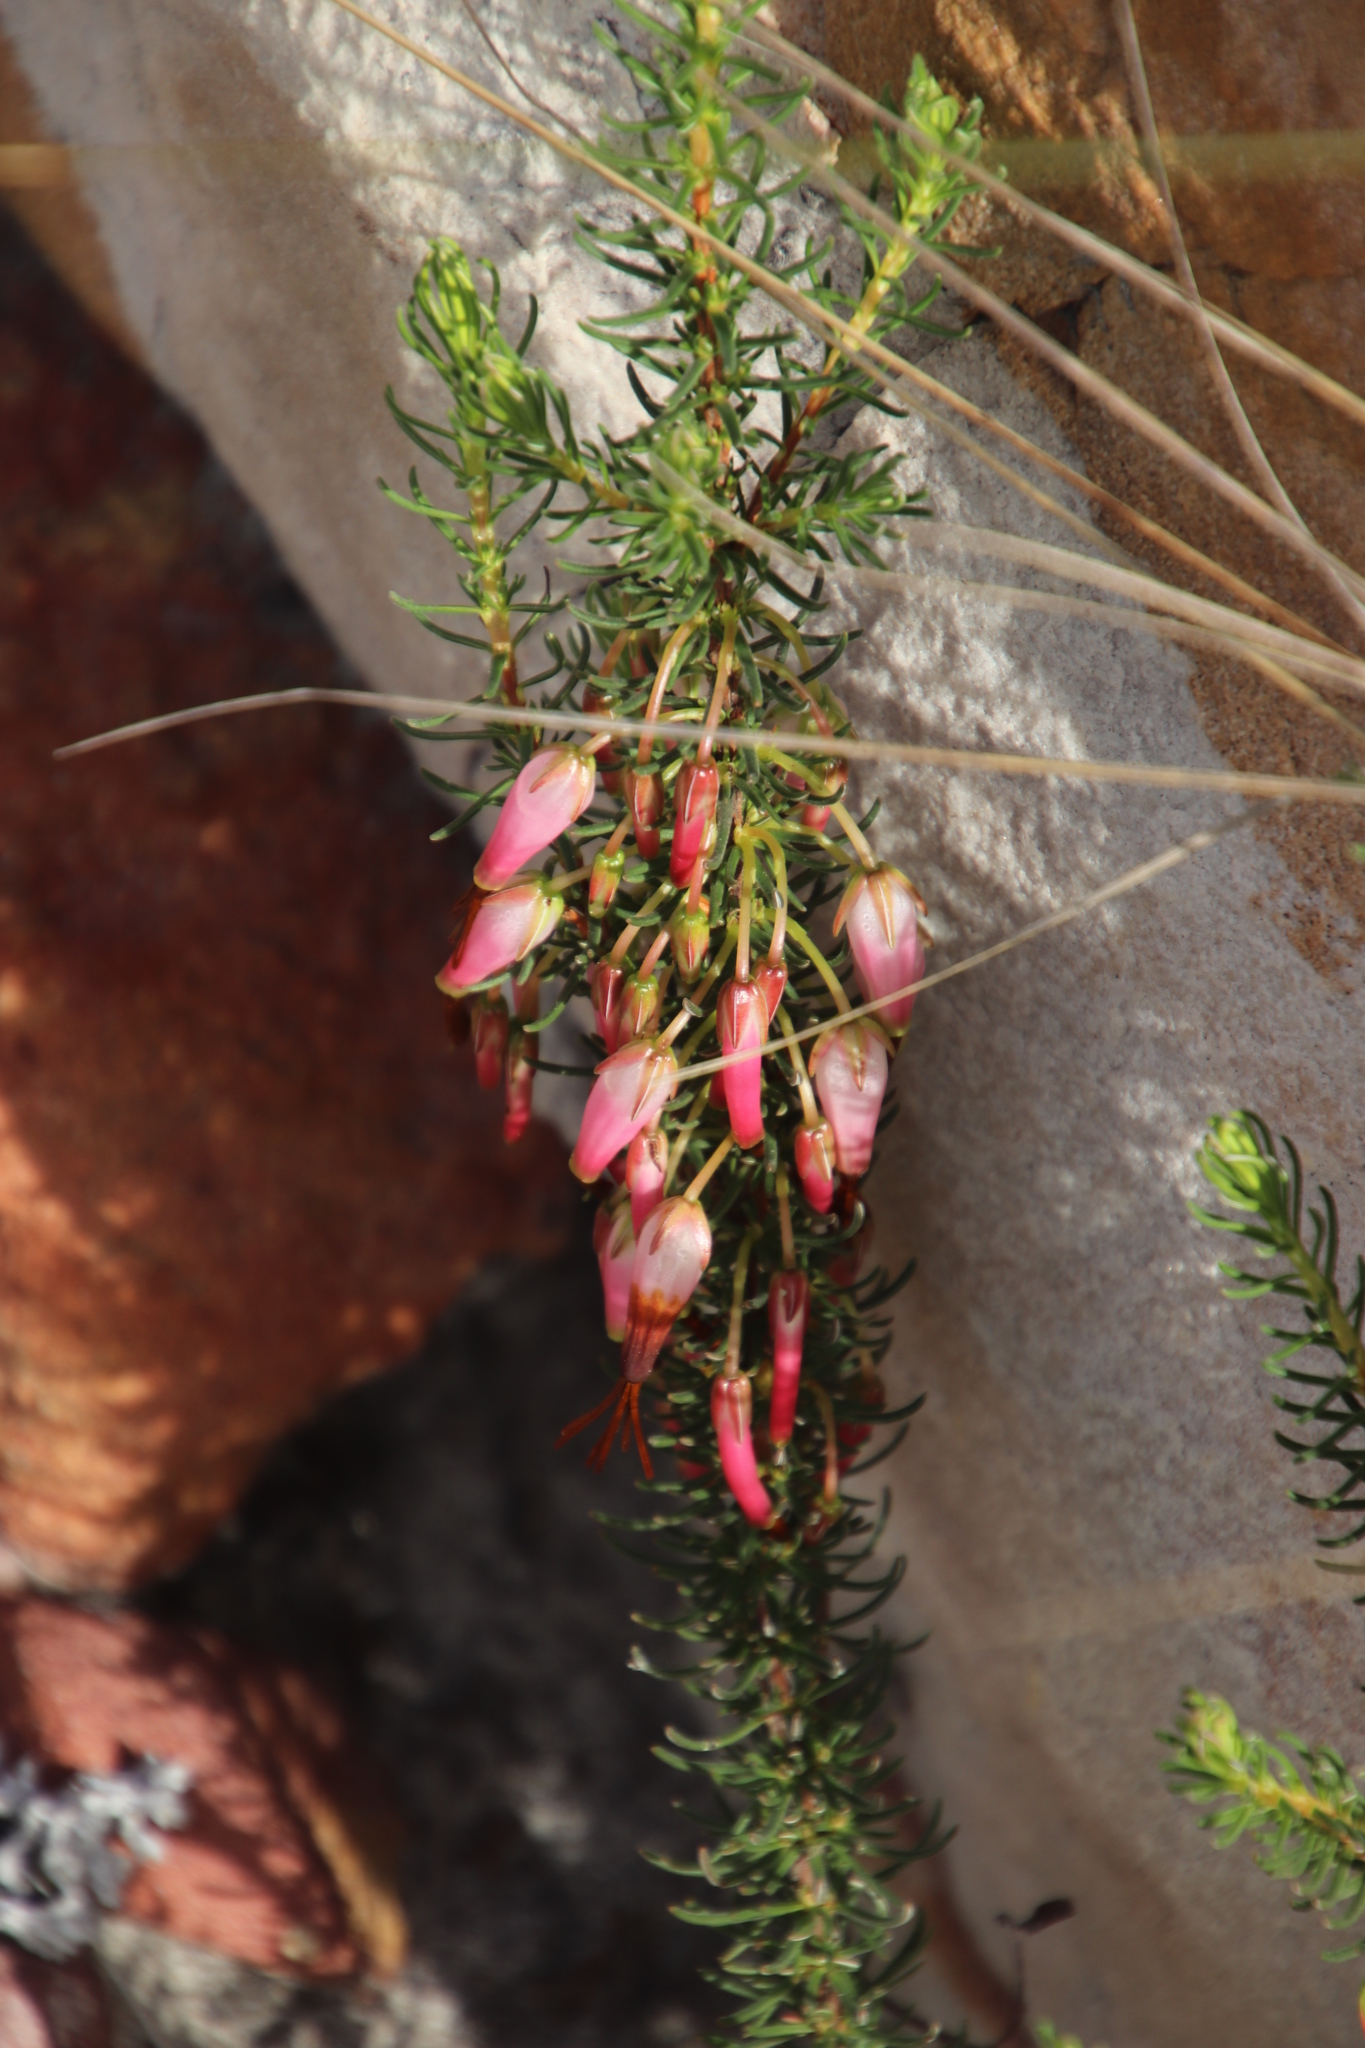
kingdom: Plantae
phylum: Tracheophyta
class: Magnoliopsida
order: Ericales
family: Ericaceae
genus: Erica
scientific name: Erica plukenetii
